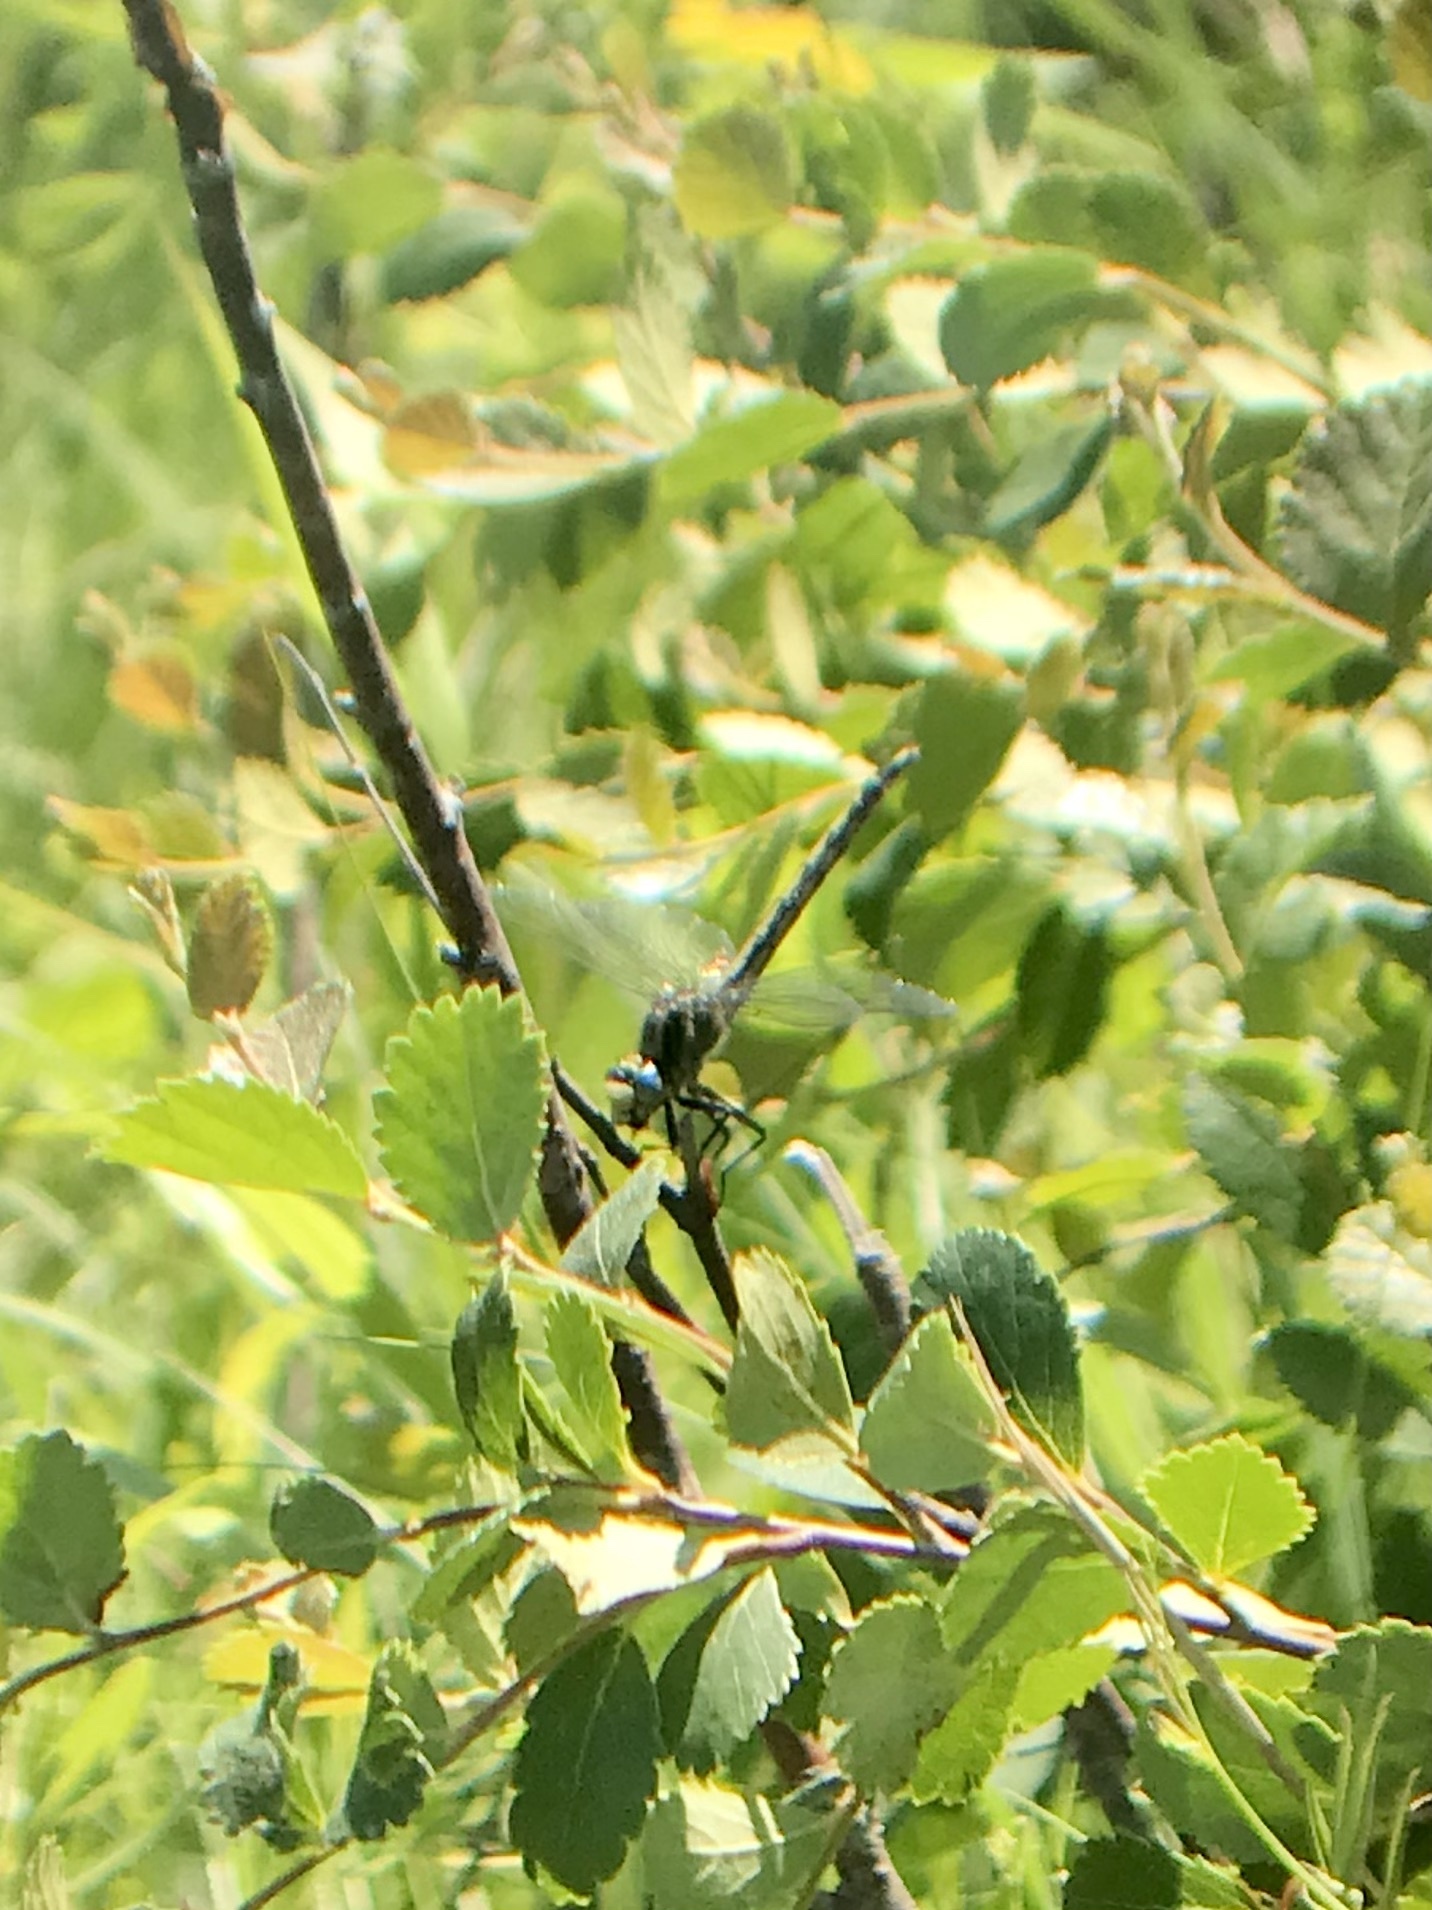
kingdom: Animalia
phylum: Arthropoda
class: Insecta
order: Odonata
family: Gomphidae
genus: Arigomphus
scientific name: Arigomphus cornutus
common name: Horned clubtail
